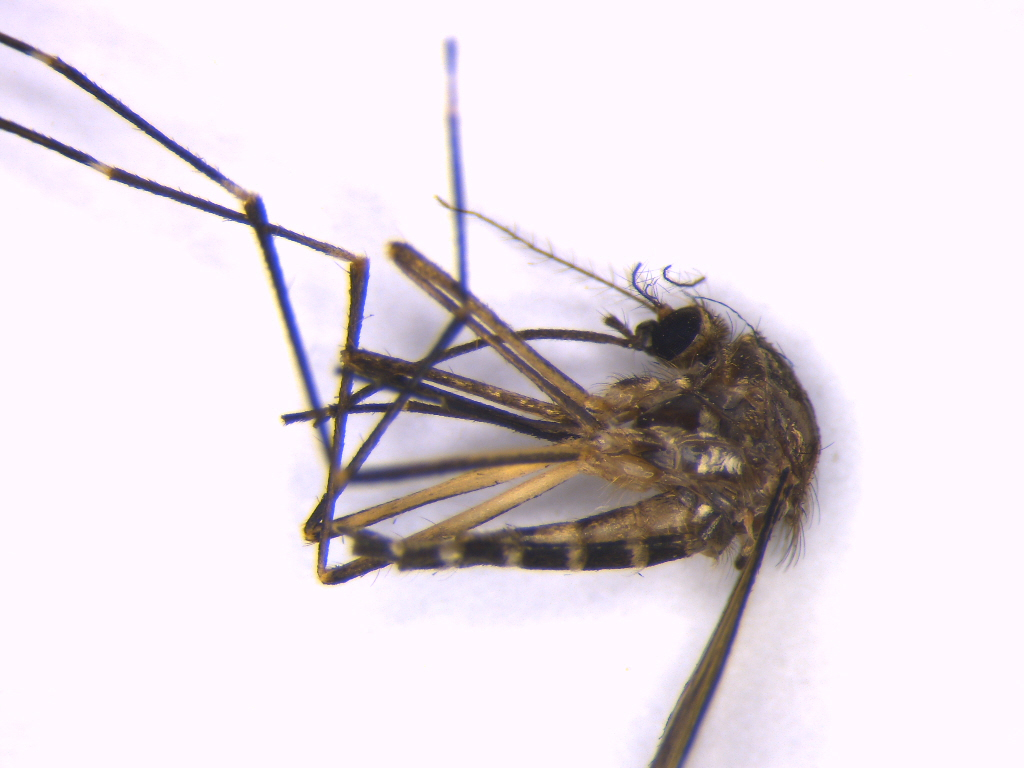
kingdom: Animalia
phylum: Arthropoda
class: Insecta
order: Diptera
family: Culicidae
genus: Aedes
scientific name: Aedes antipodeus
